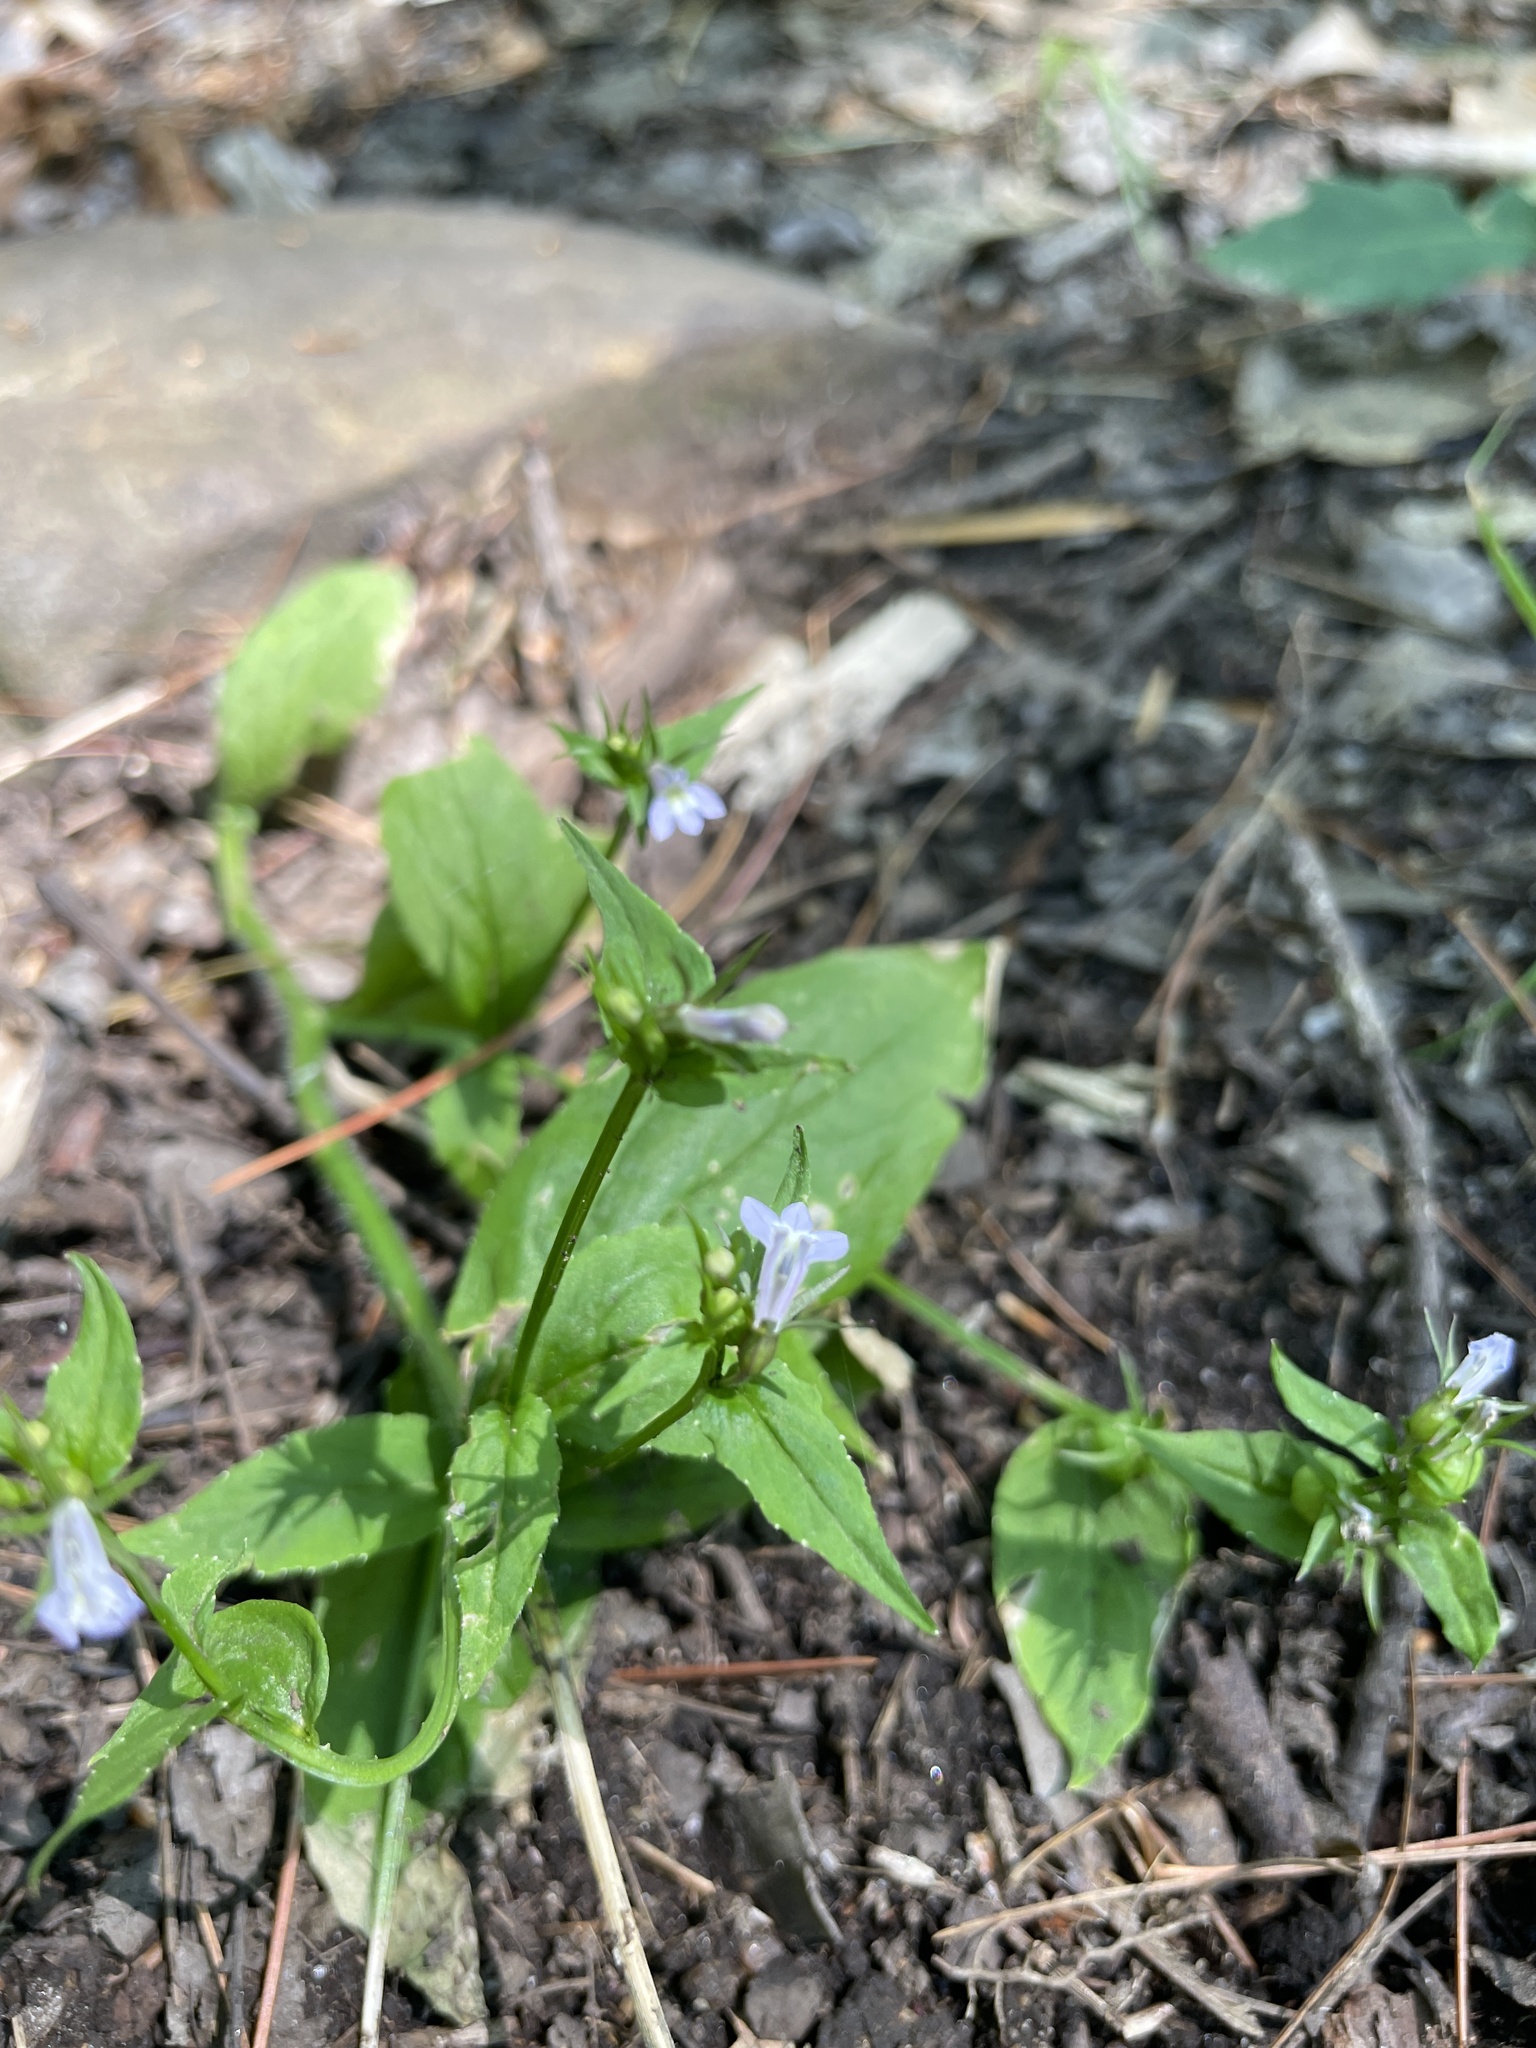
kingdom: Plantae
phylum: Tracheophyta
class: Magnoliopsida
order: Asterales
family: Campanulaceae
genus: Lobelia
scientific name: Lobelia inflata
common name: Indian tobacco
